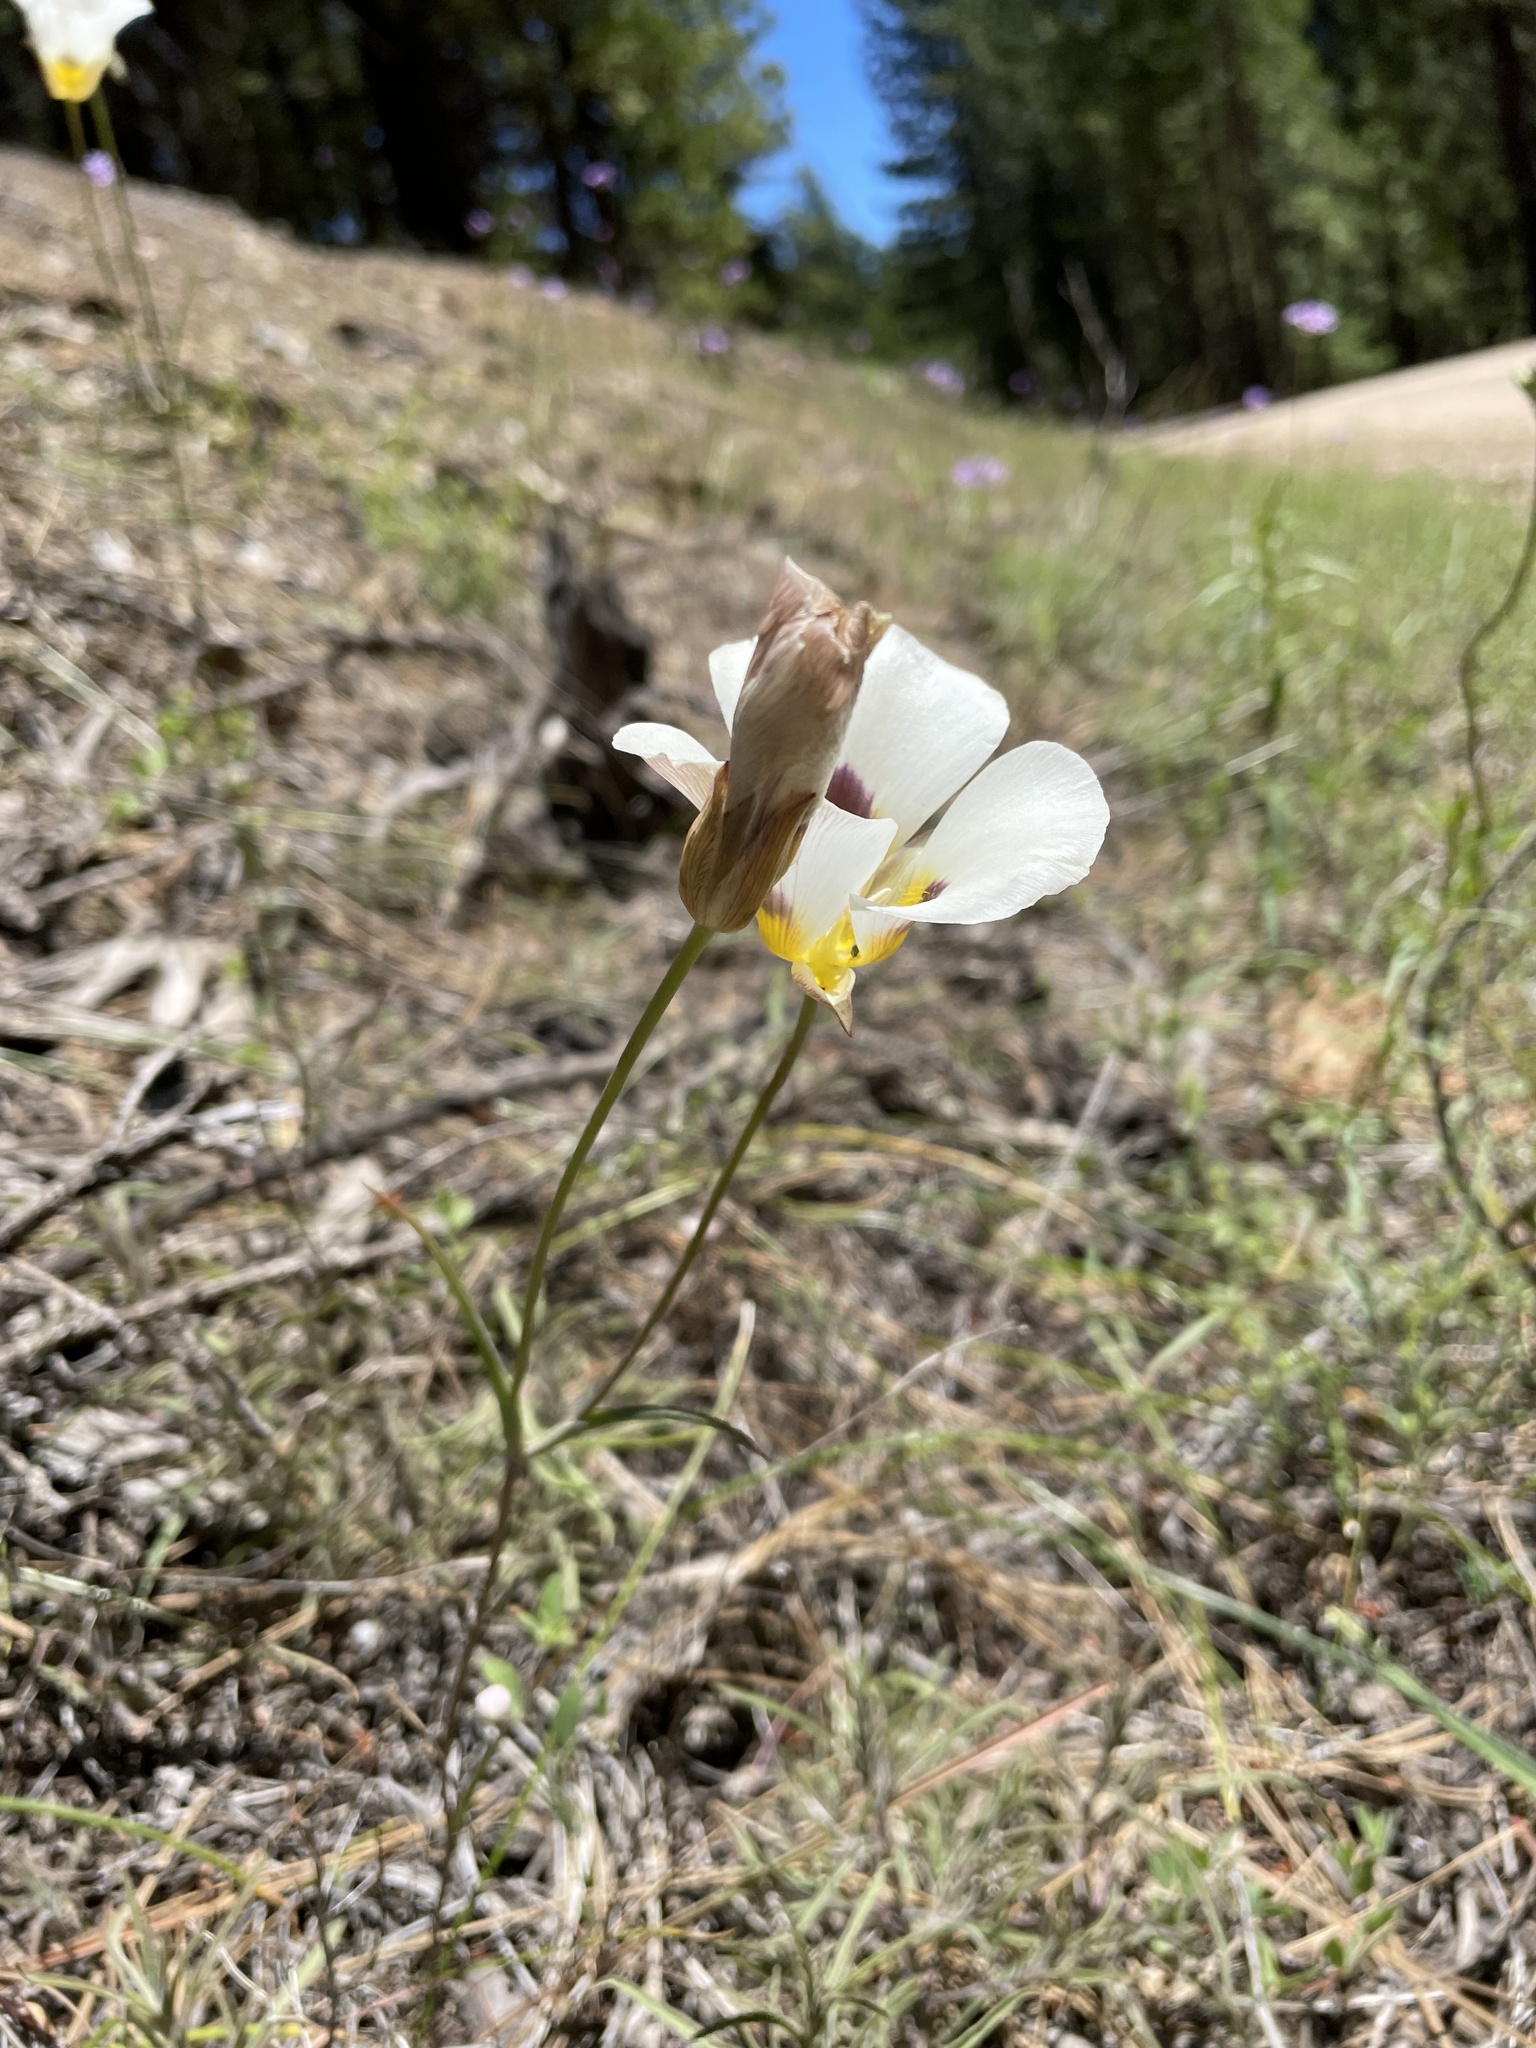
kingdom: Plantae
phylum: Tracheophyta
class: Liliopsida
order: Liliales
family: Liliaceae
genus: Calochortus
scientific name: Calochortus leichtlinii
